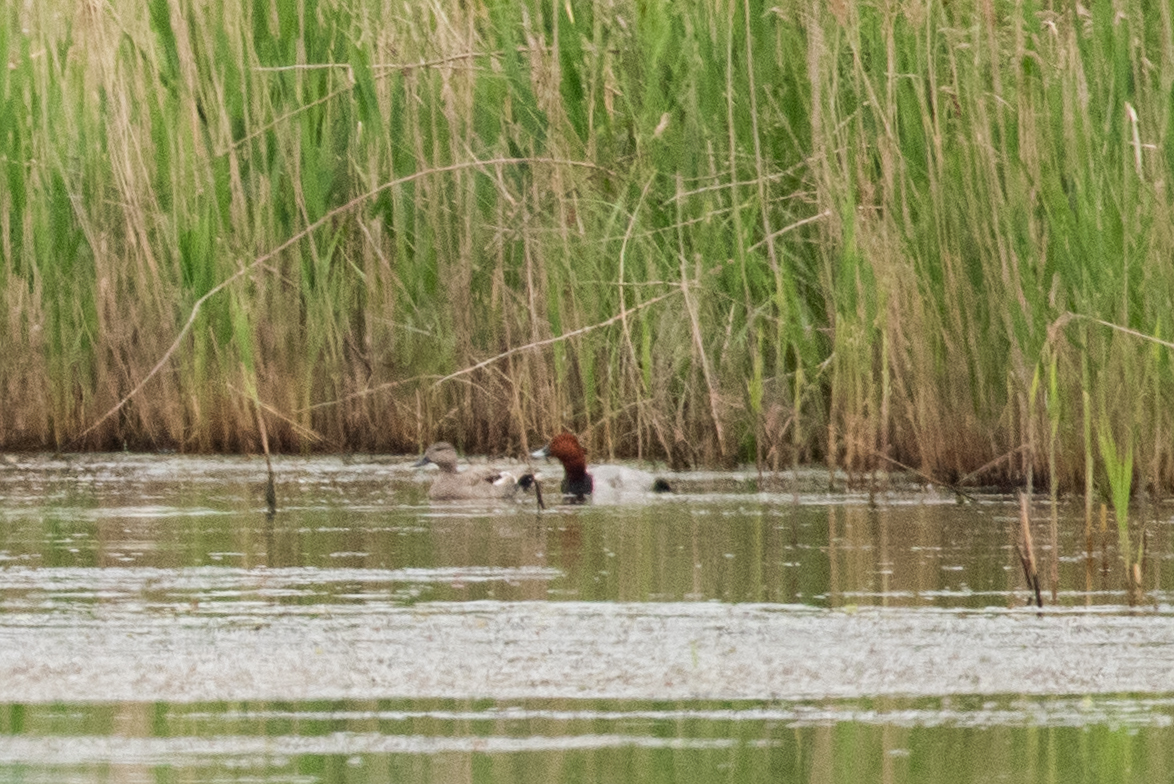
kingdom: Animalia
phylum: Chordata
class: Aves
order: Anseriformes
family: Anatidae
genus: Aythya
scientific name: Aythya ferina
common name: Common pochard
